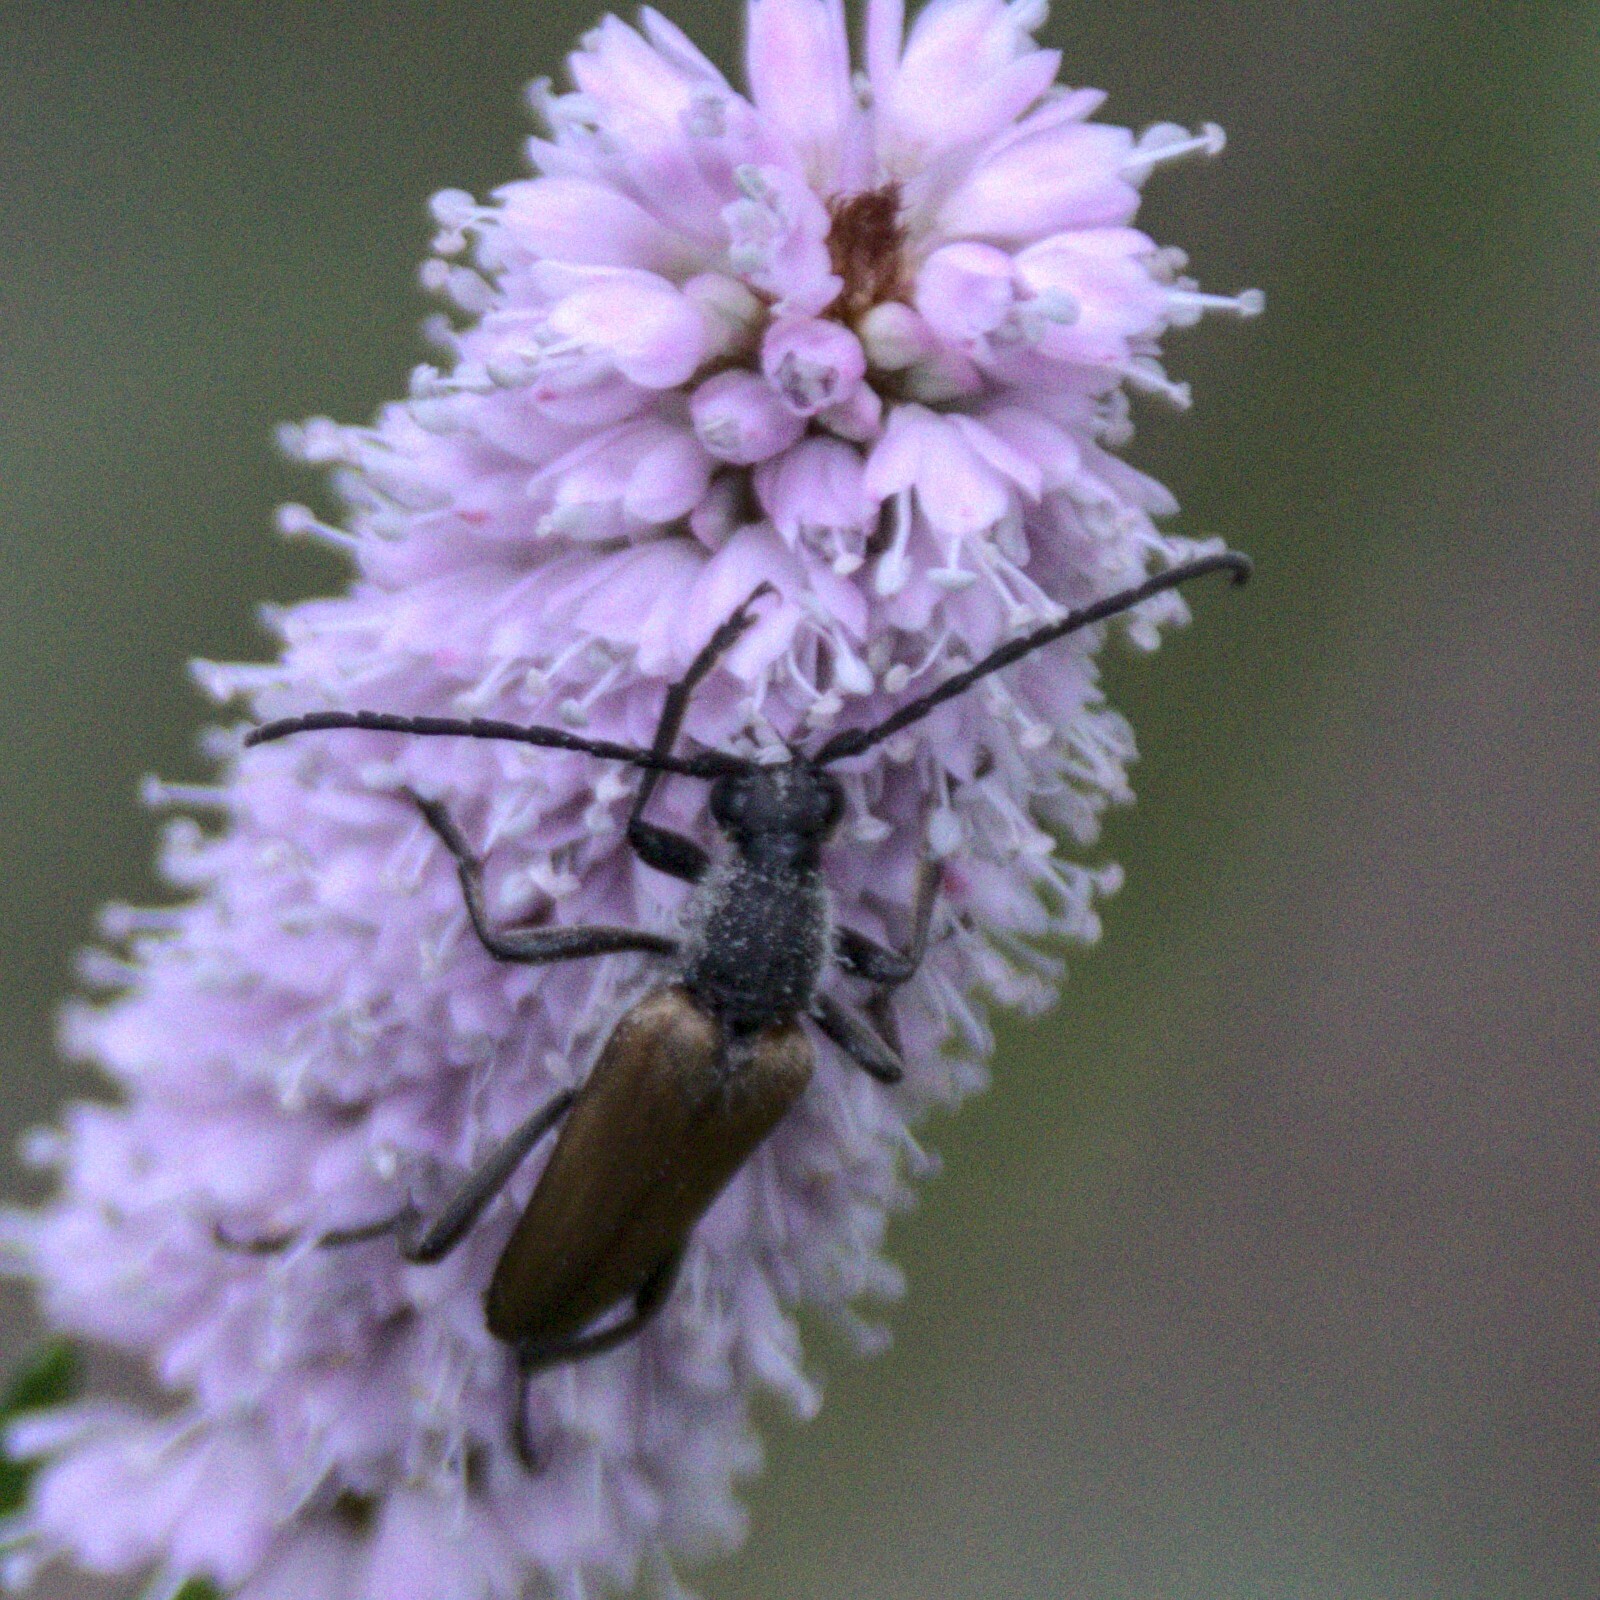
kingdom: Animalia
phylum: Arthropoda
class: Insecta
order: Coleoptera
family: Cerambycidae
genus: Anastrangalia
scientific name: Anastrangalia reyi
